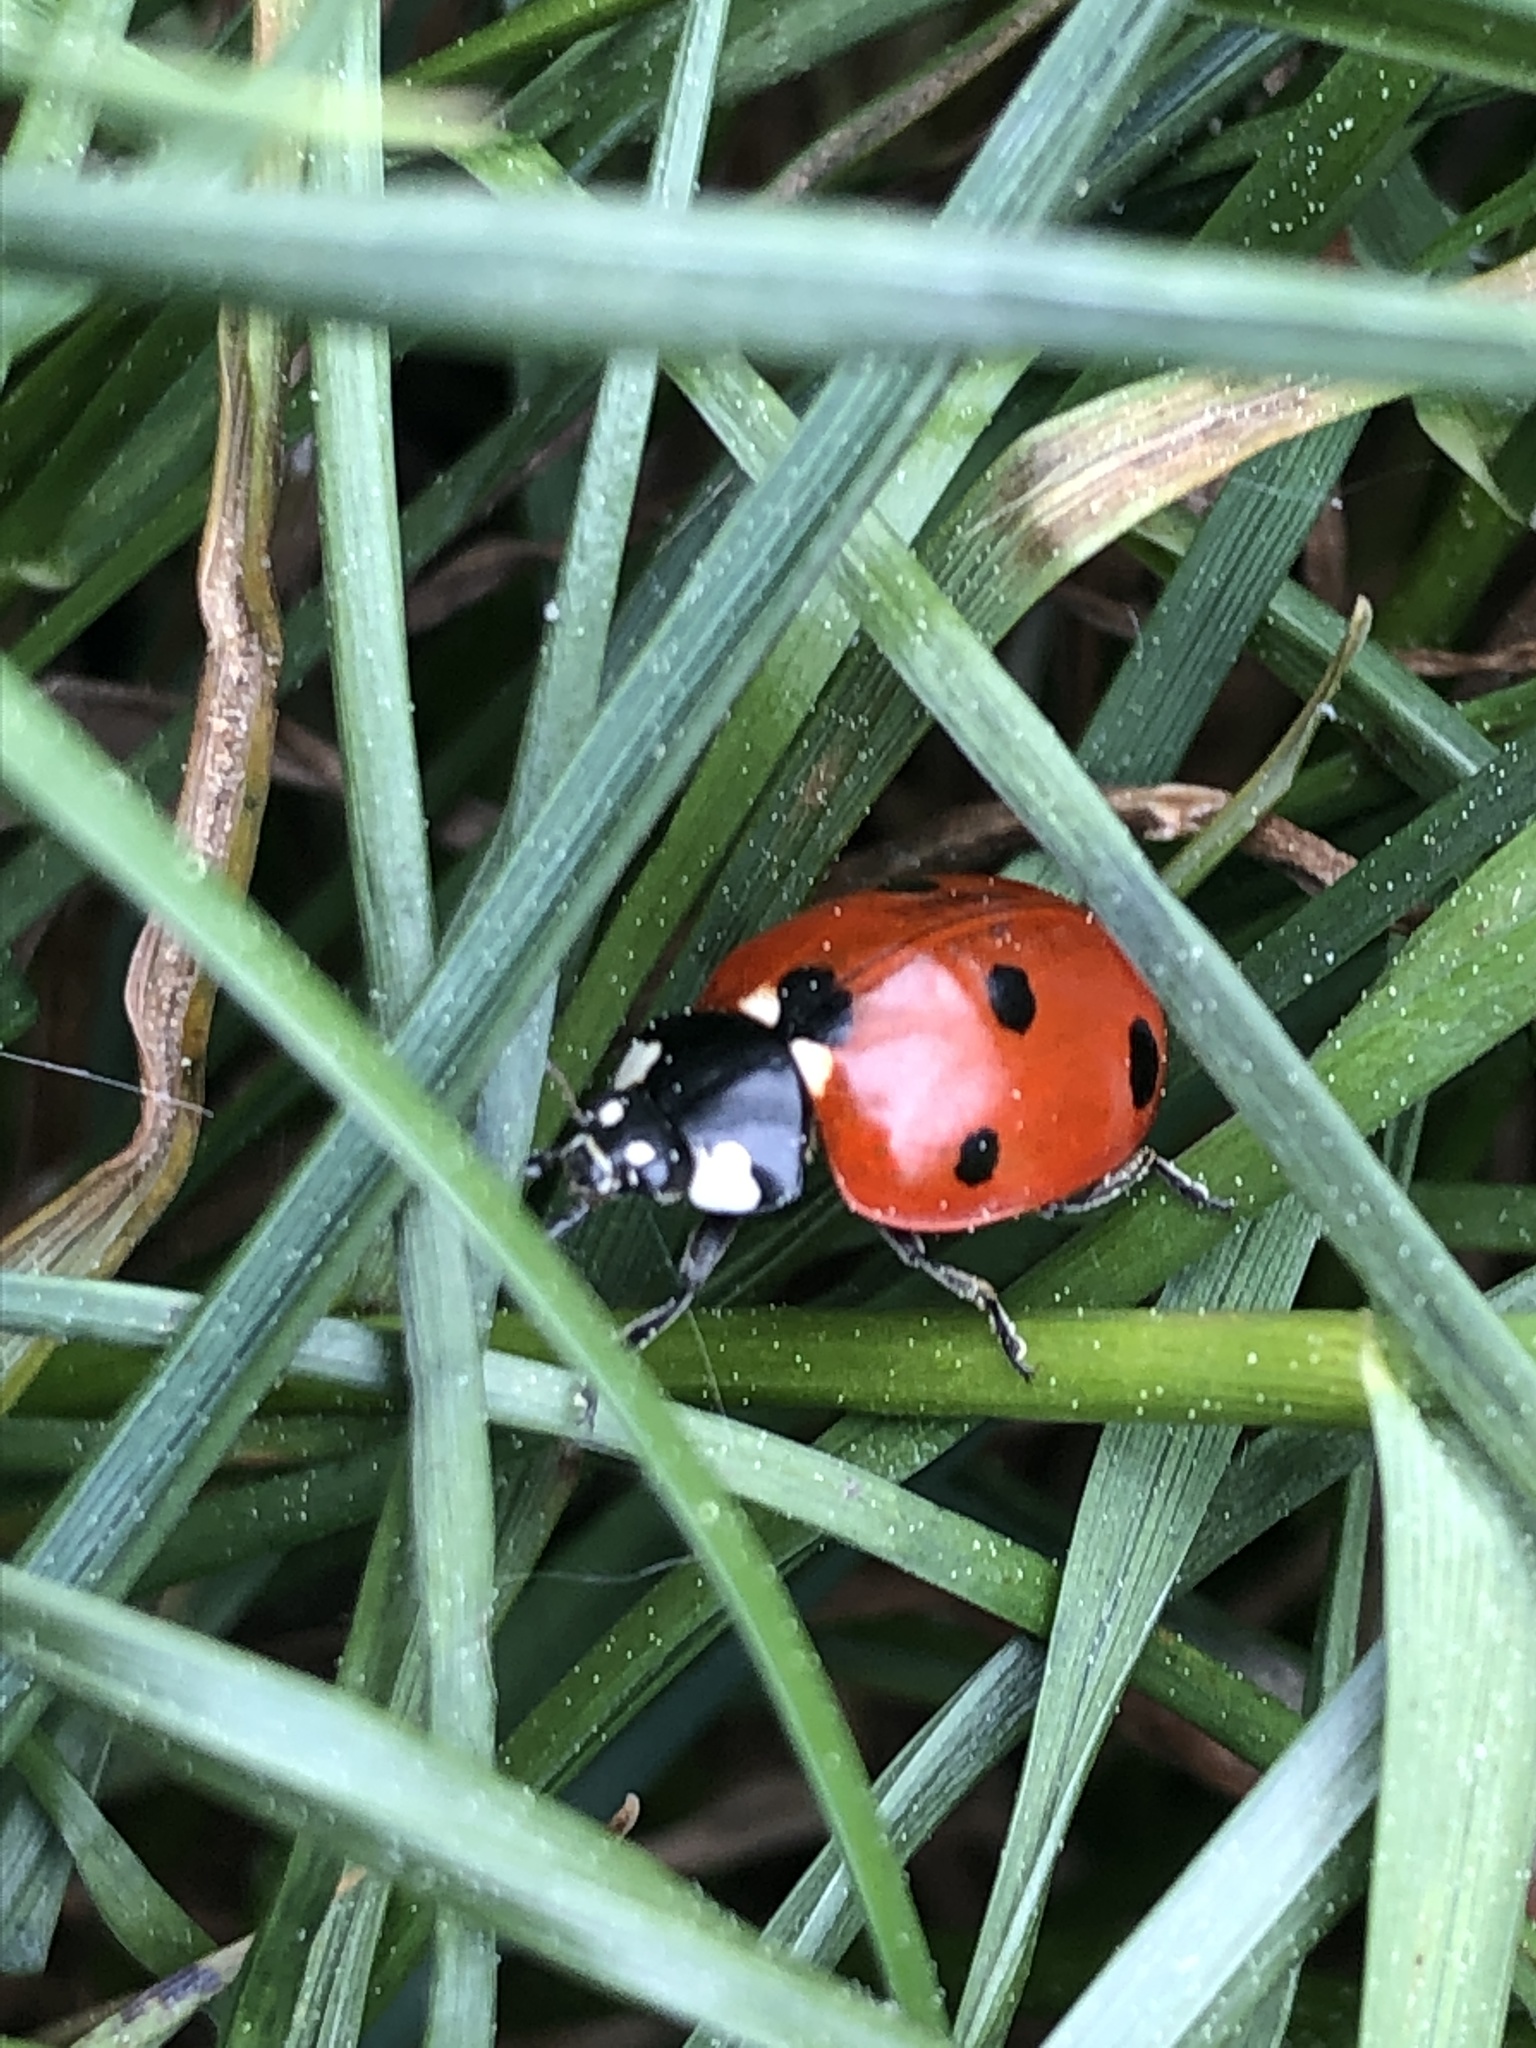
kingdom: Animalia
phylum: Arthropoda
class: Insecta
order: Coleoptera
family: Coccinellidae
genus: Coccinella
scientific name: Coccinella septempunctata
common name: Sevenspotted lady beetle
